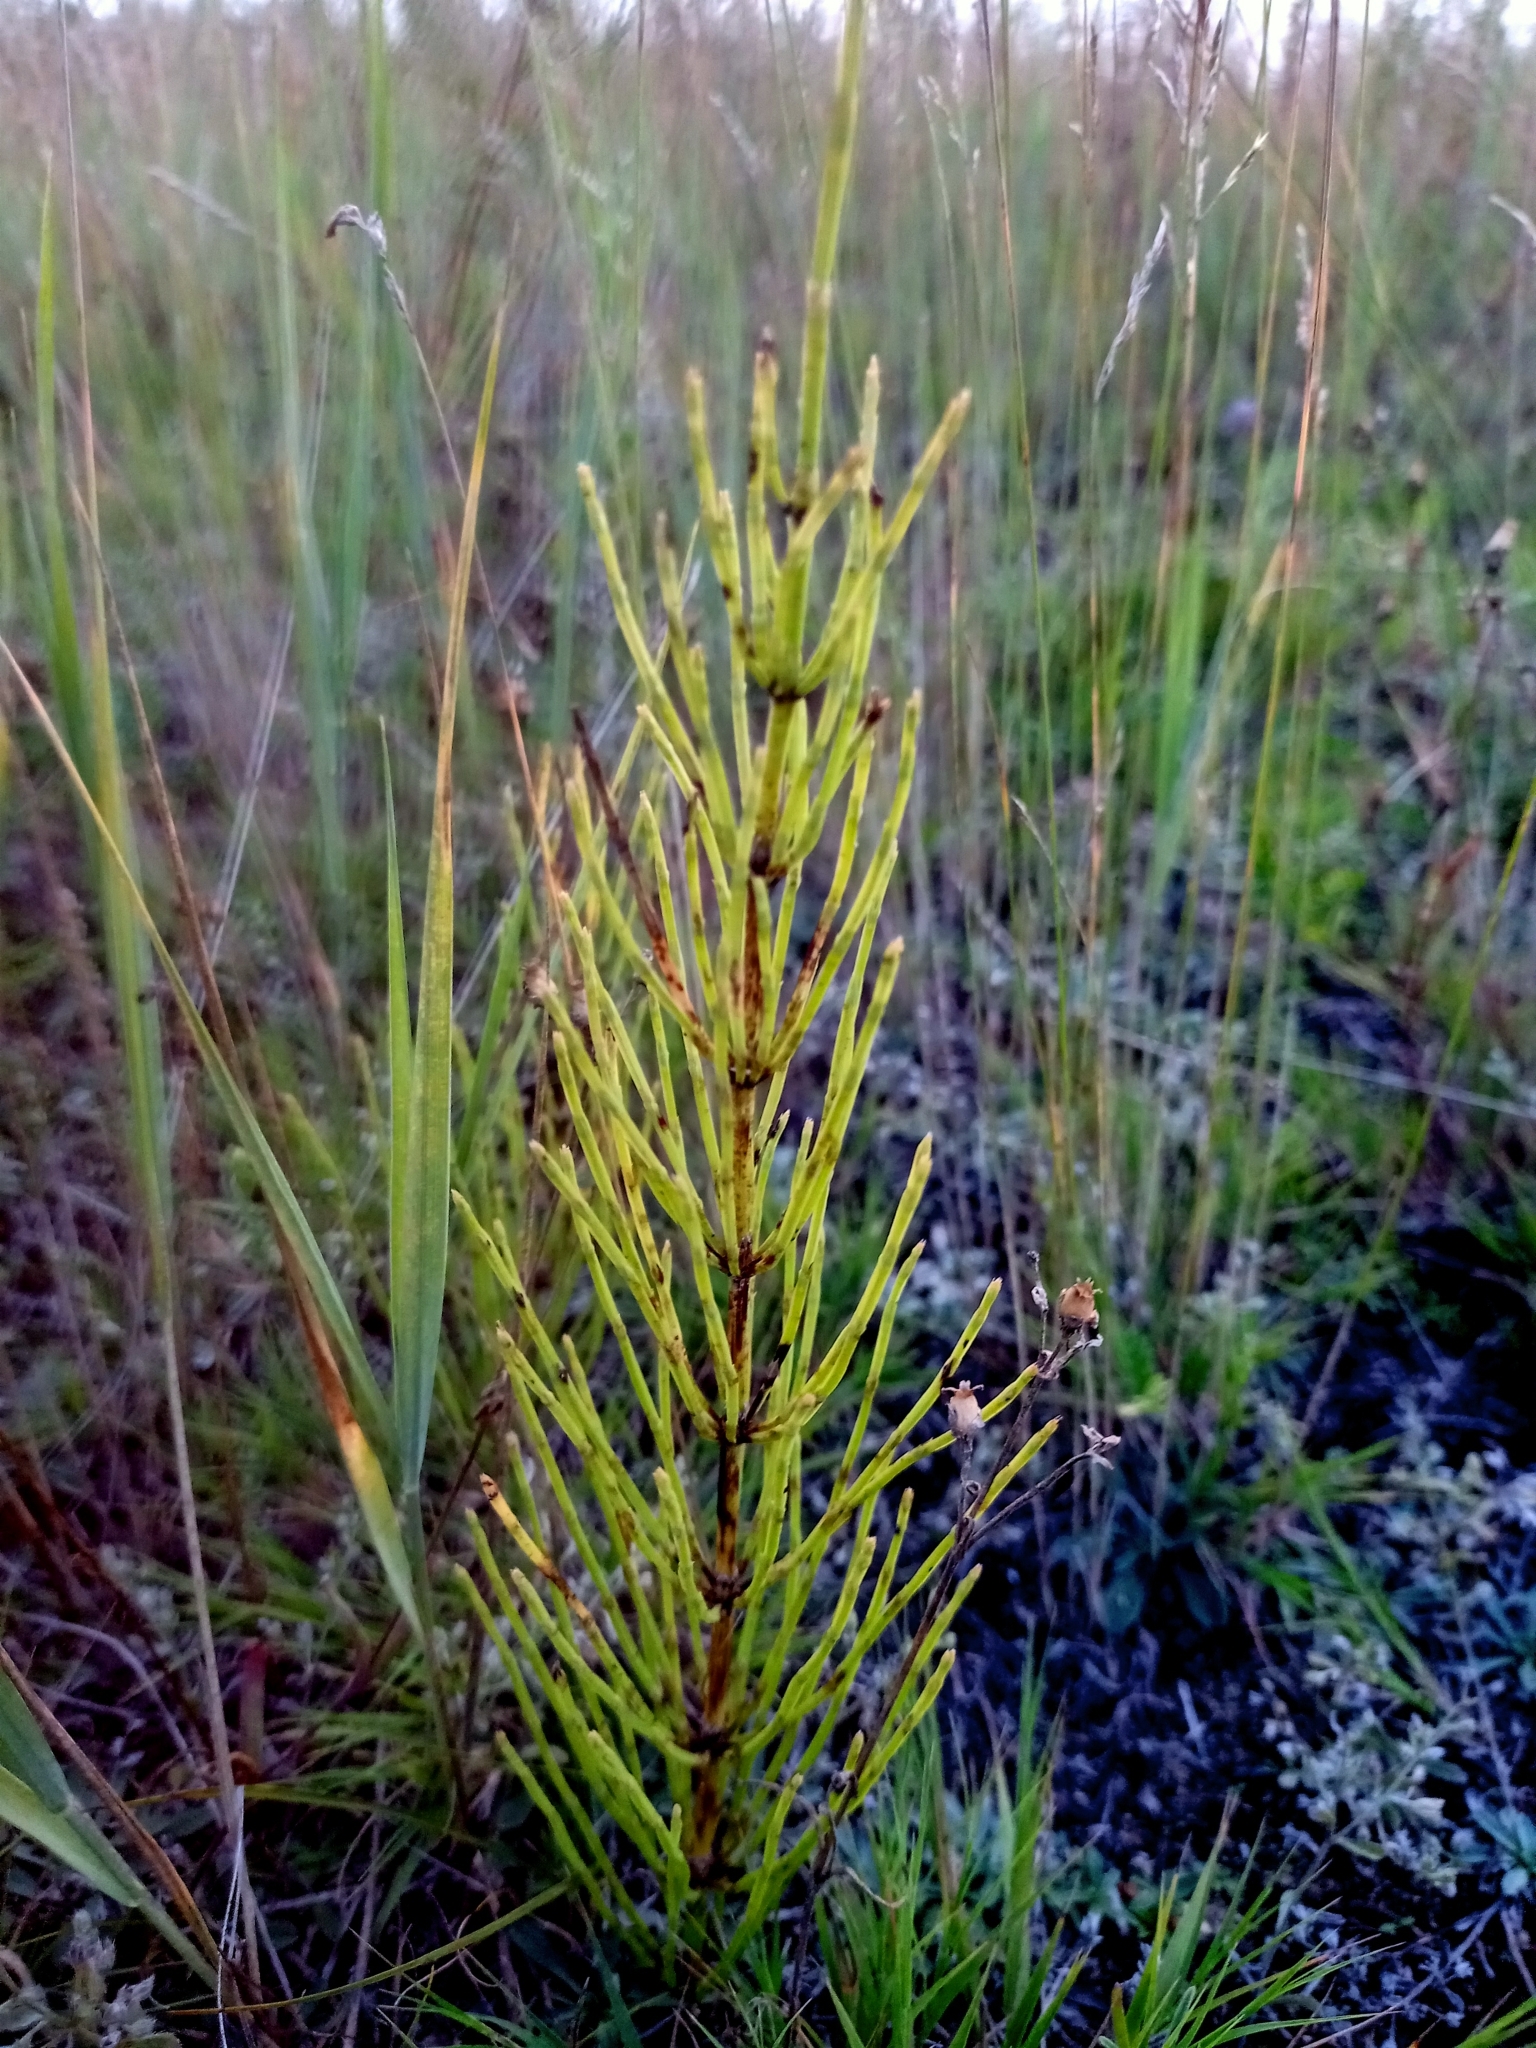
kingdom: Plantae
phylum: Tracheophyta
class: Polypodiopsida
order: Equisetales
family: Equisetaceae
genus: Equisetum
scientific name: Equisetum arvense
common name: Field horsetail
